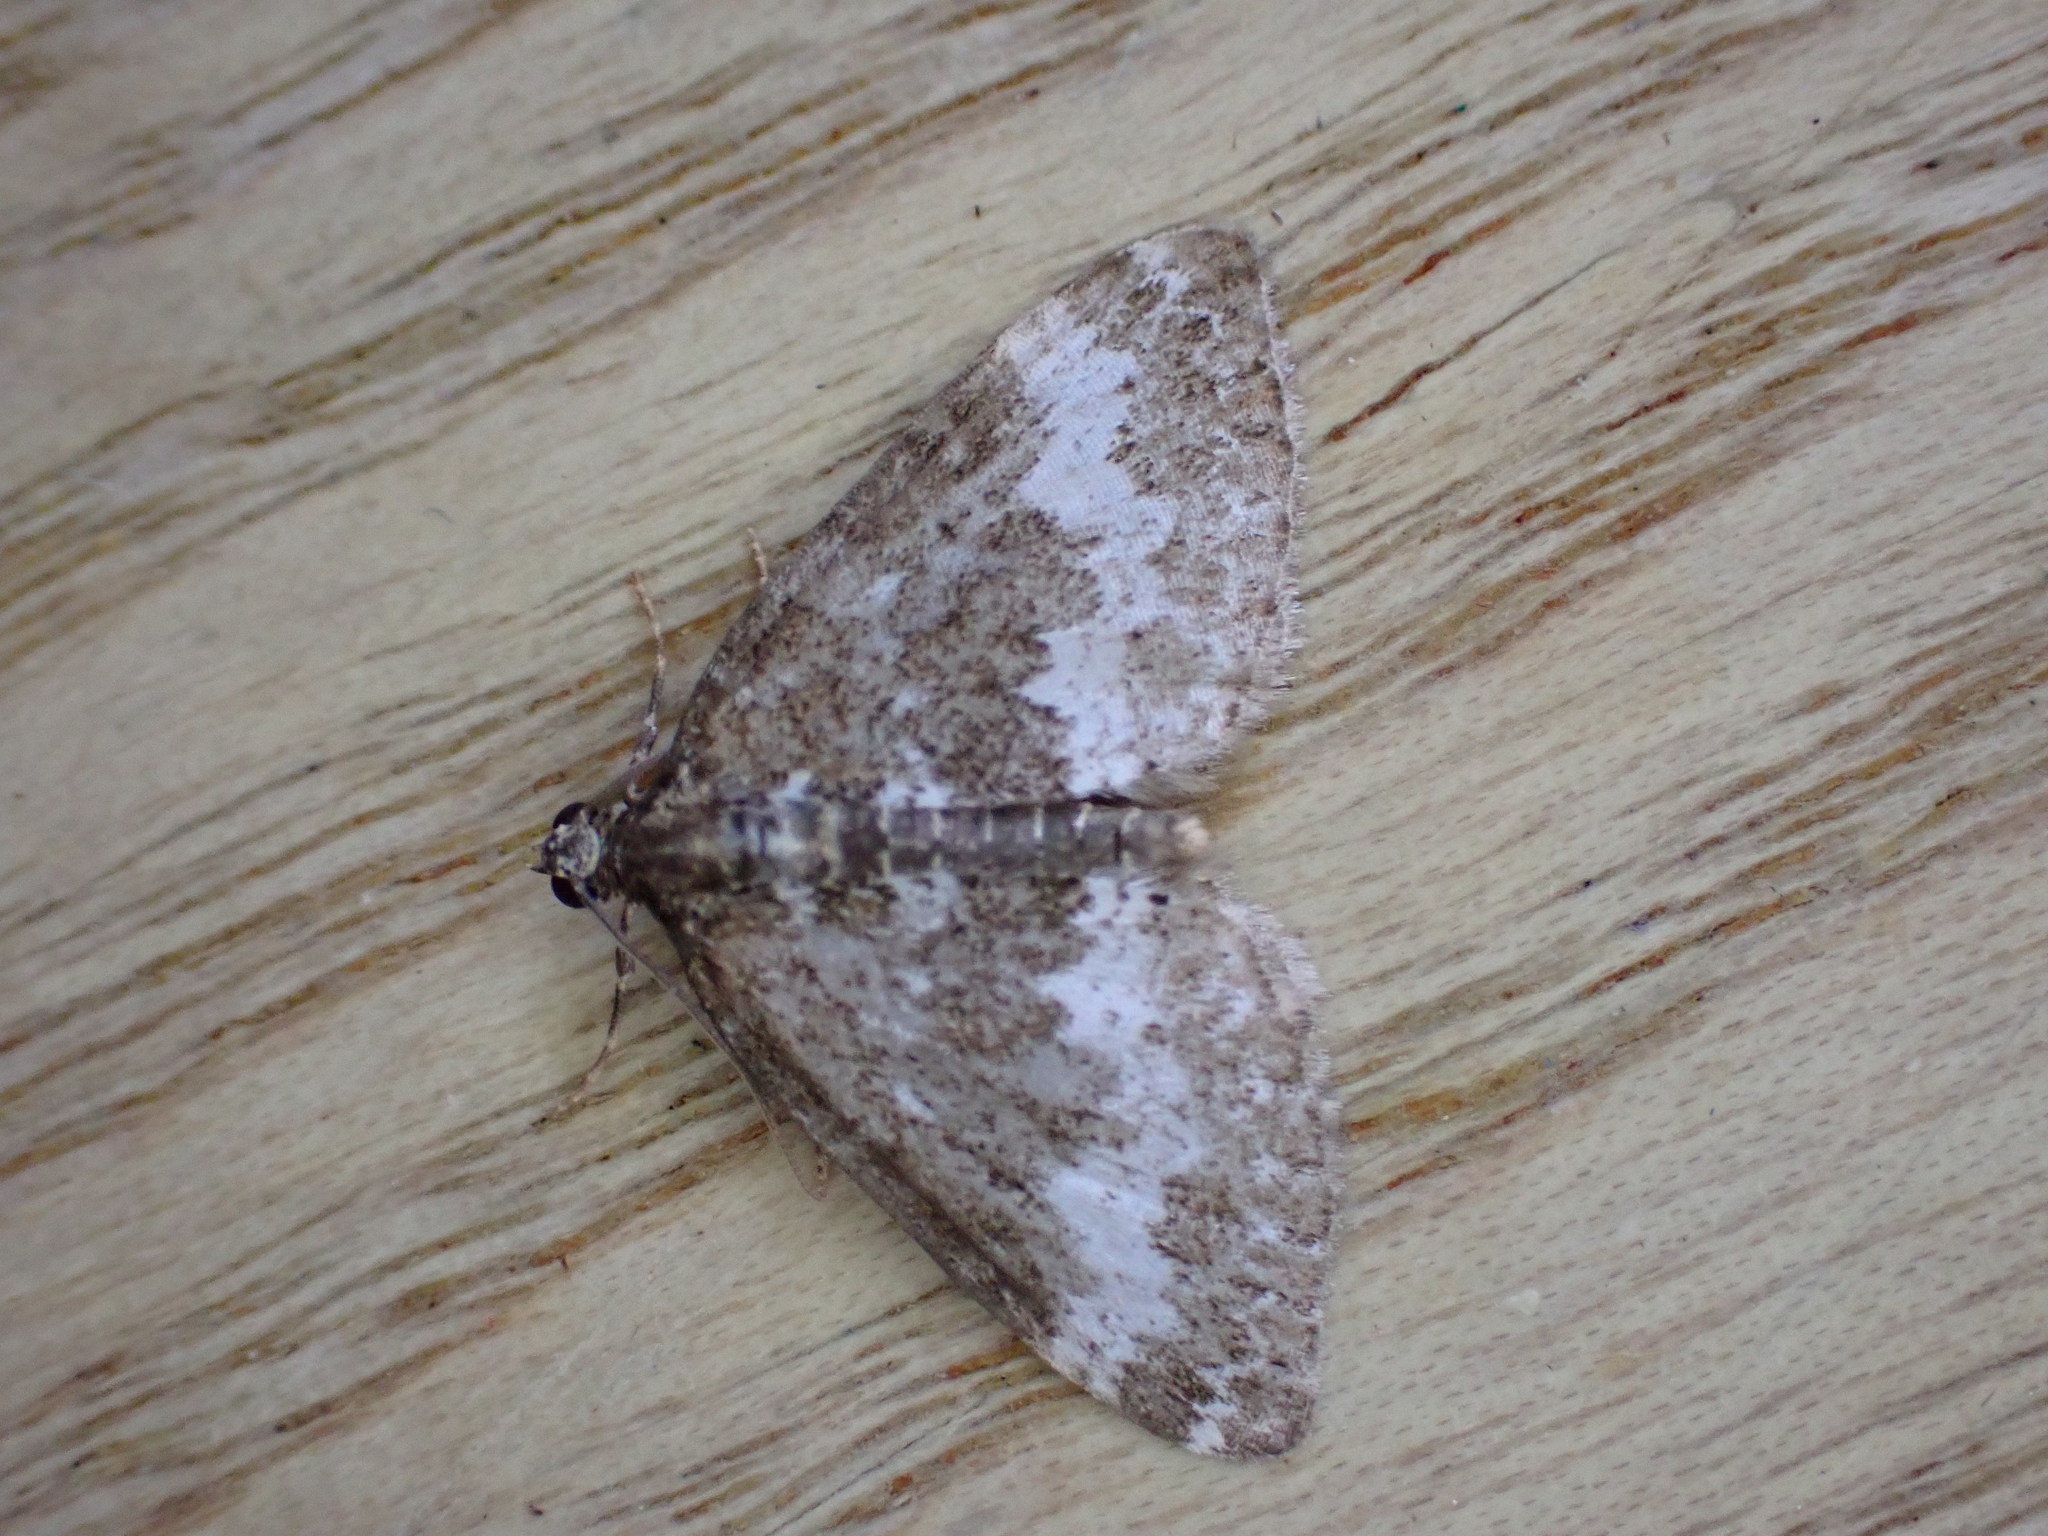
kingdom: Animalia
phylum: Arthropoda
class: Insecta
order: Lepidoptera
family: Geometridae
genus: Perizoma
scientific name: Perizoma alchemillata
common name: Small rivulet
